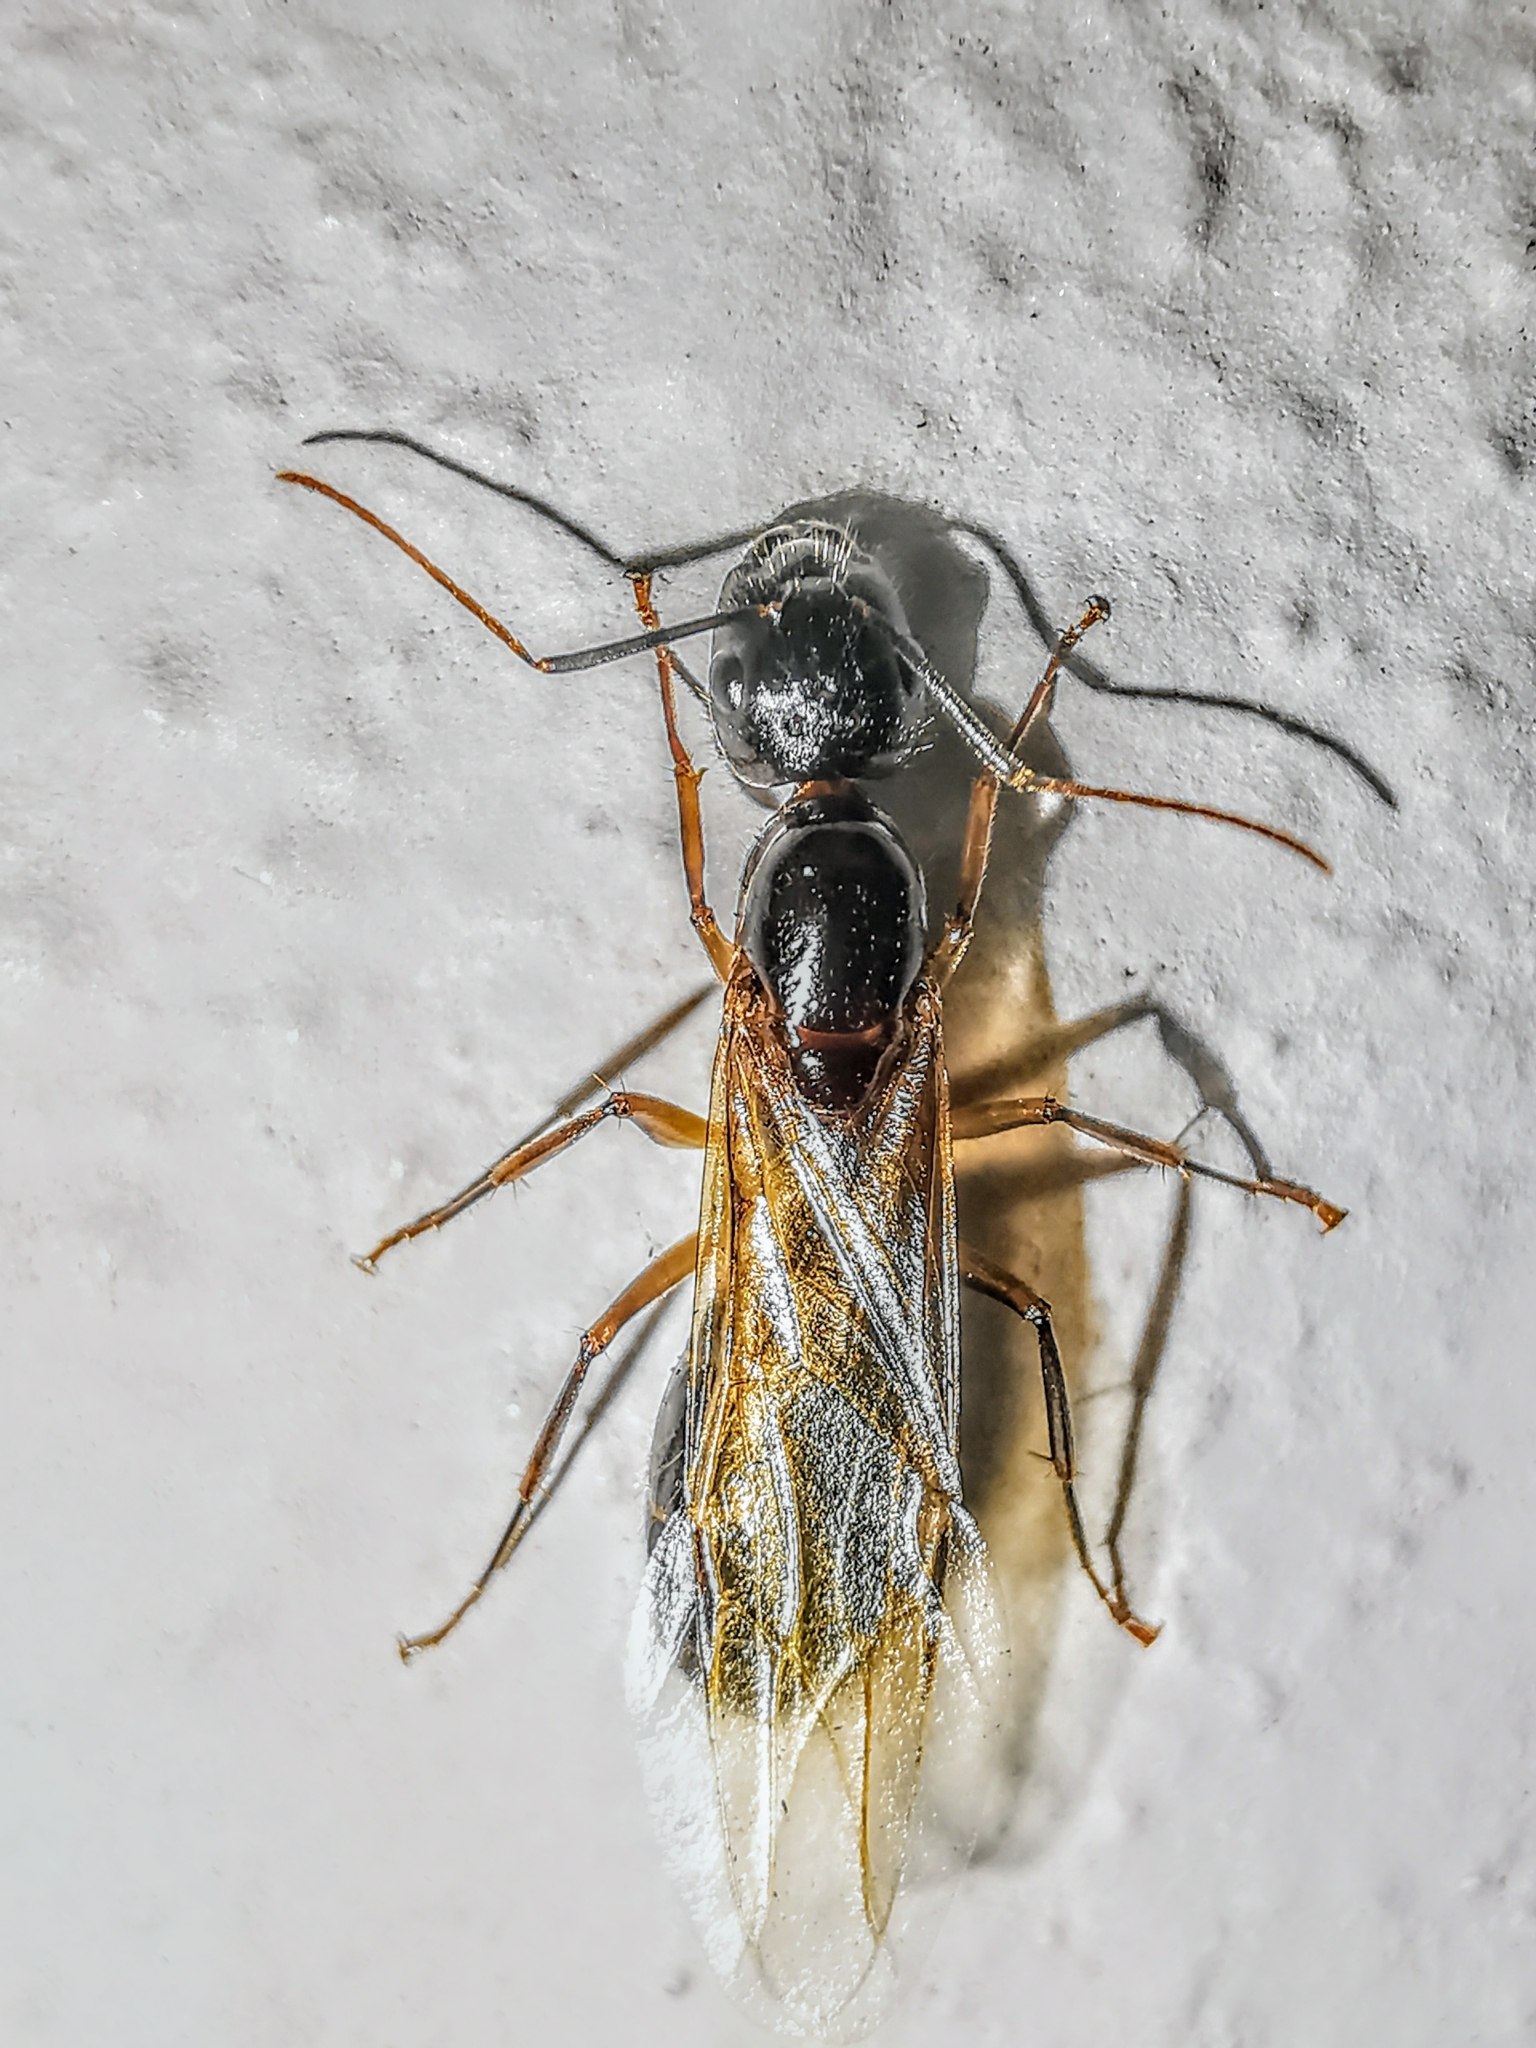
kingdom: Animalia
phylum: Arthropoda
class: Insecta
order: Hymenoptera
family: Formicidae
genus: Camponotus
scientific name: Camponotus pressipes
